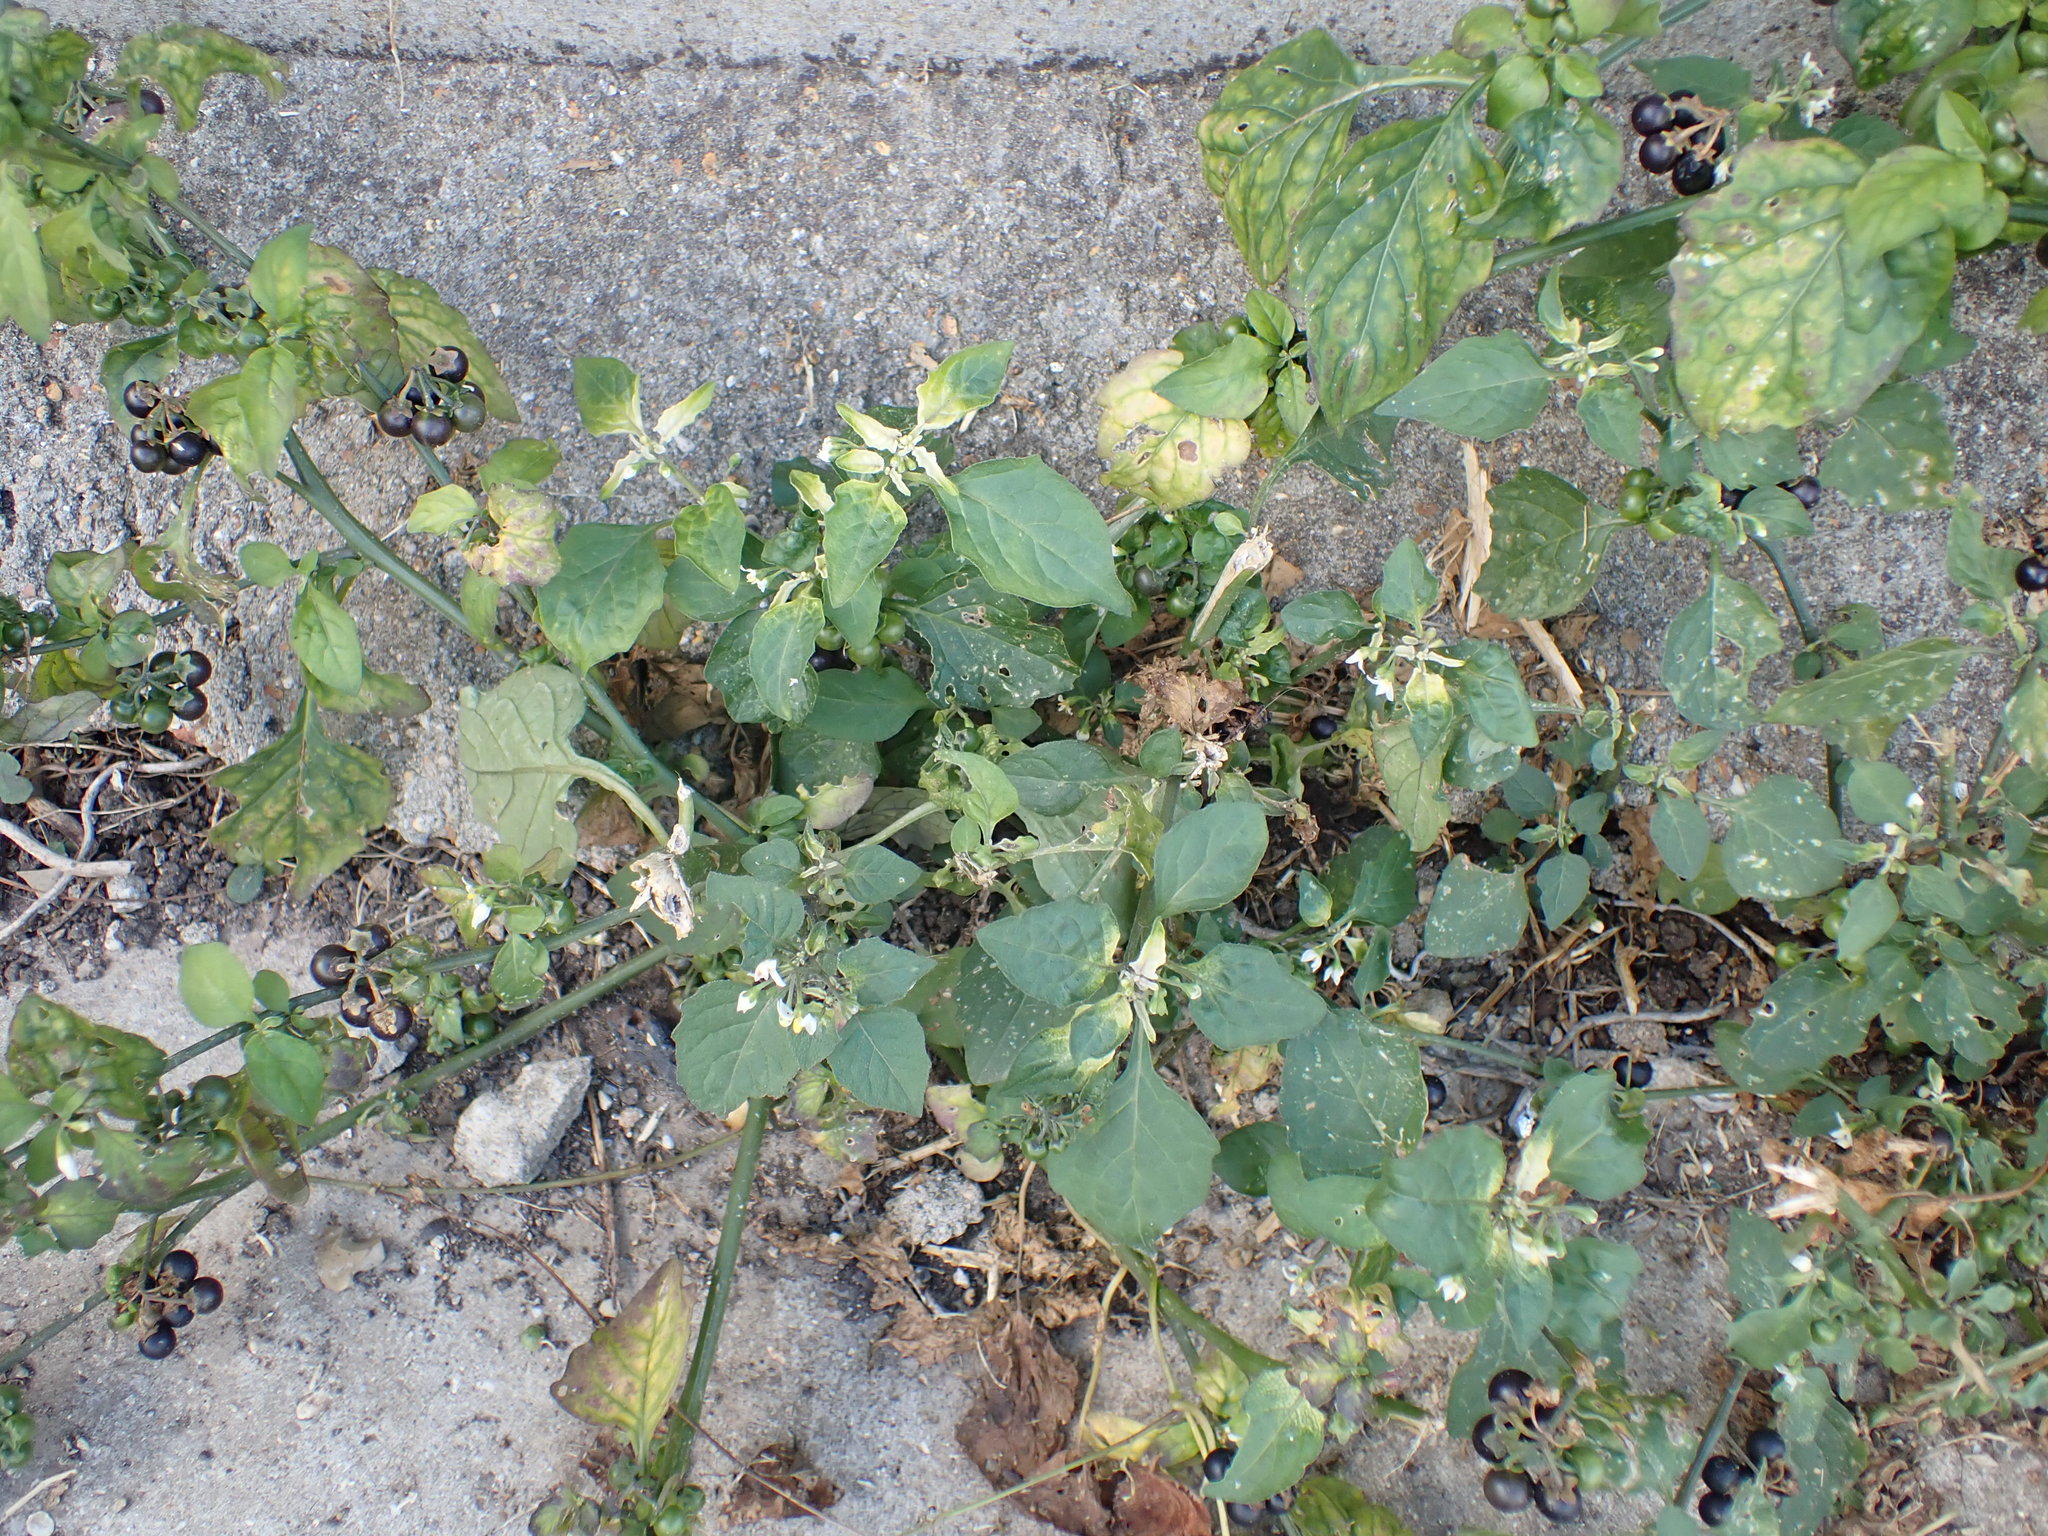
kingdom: Plantae
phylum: Tracheophyta
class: Magnoliopsida
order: Solanales
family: Solanaceae
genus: Solanum
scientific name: Solanum nigrum
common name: Black nightshade
